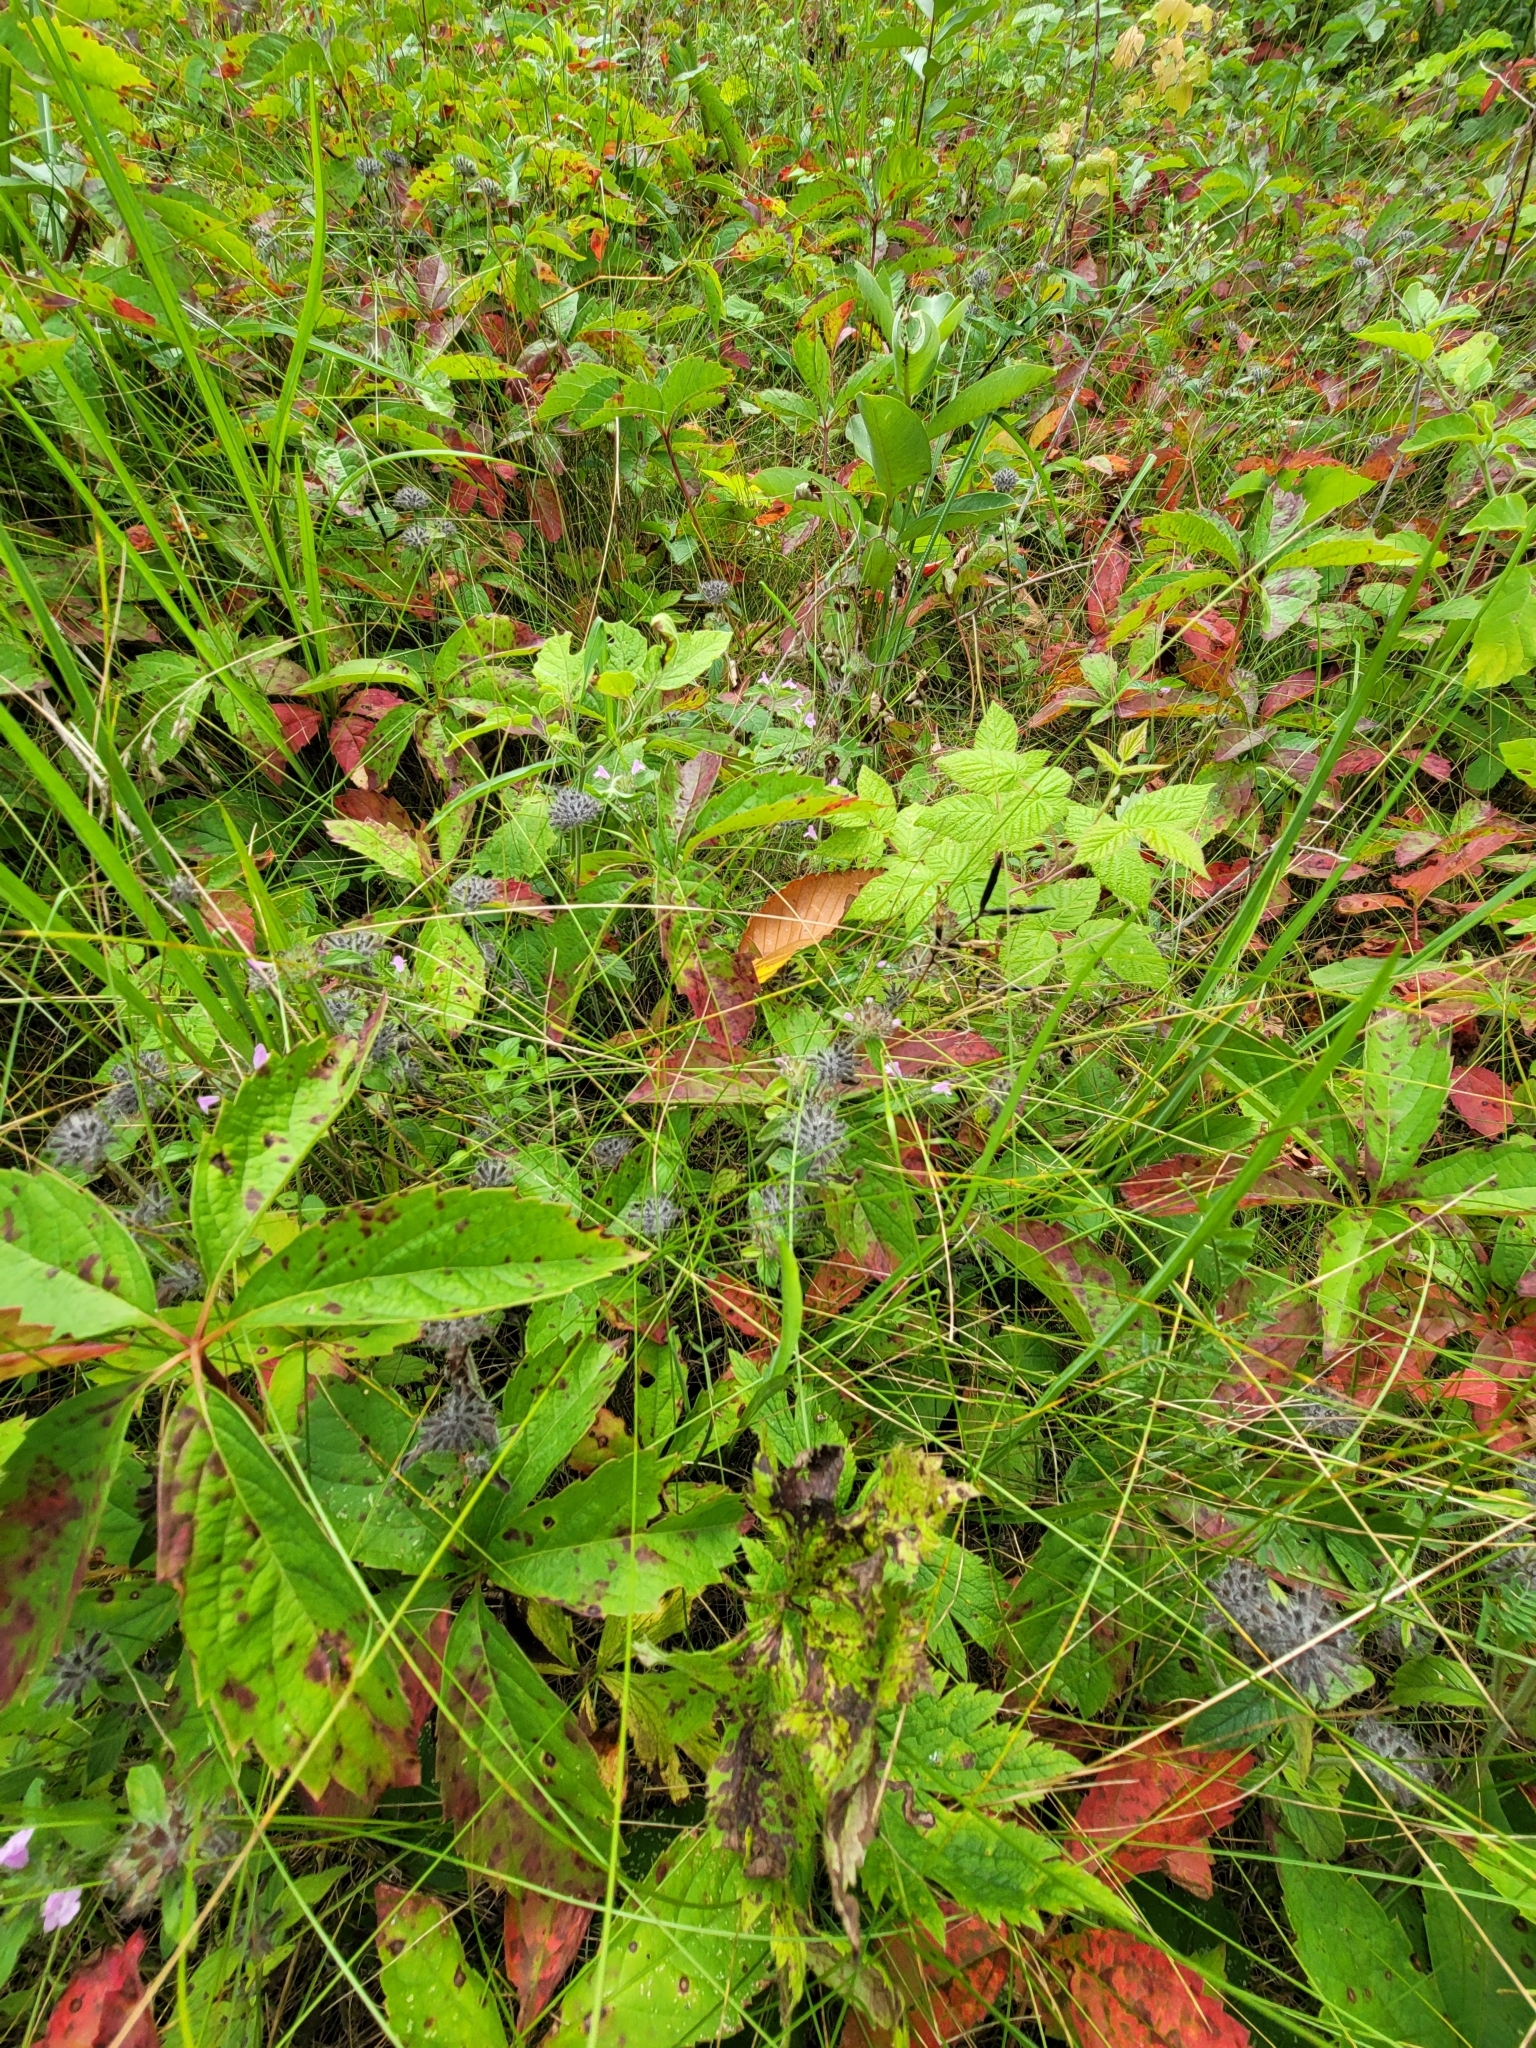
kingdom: Plantae
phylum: Tracheophyta
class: Magnoliopsida
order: Lamiales
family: Lamiaceae
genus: Clinopodium
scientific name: Clinopodium vulgare
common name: Wild basil
